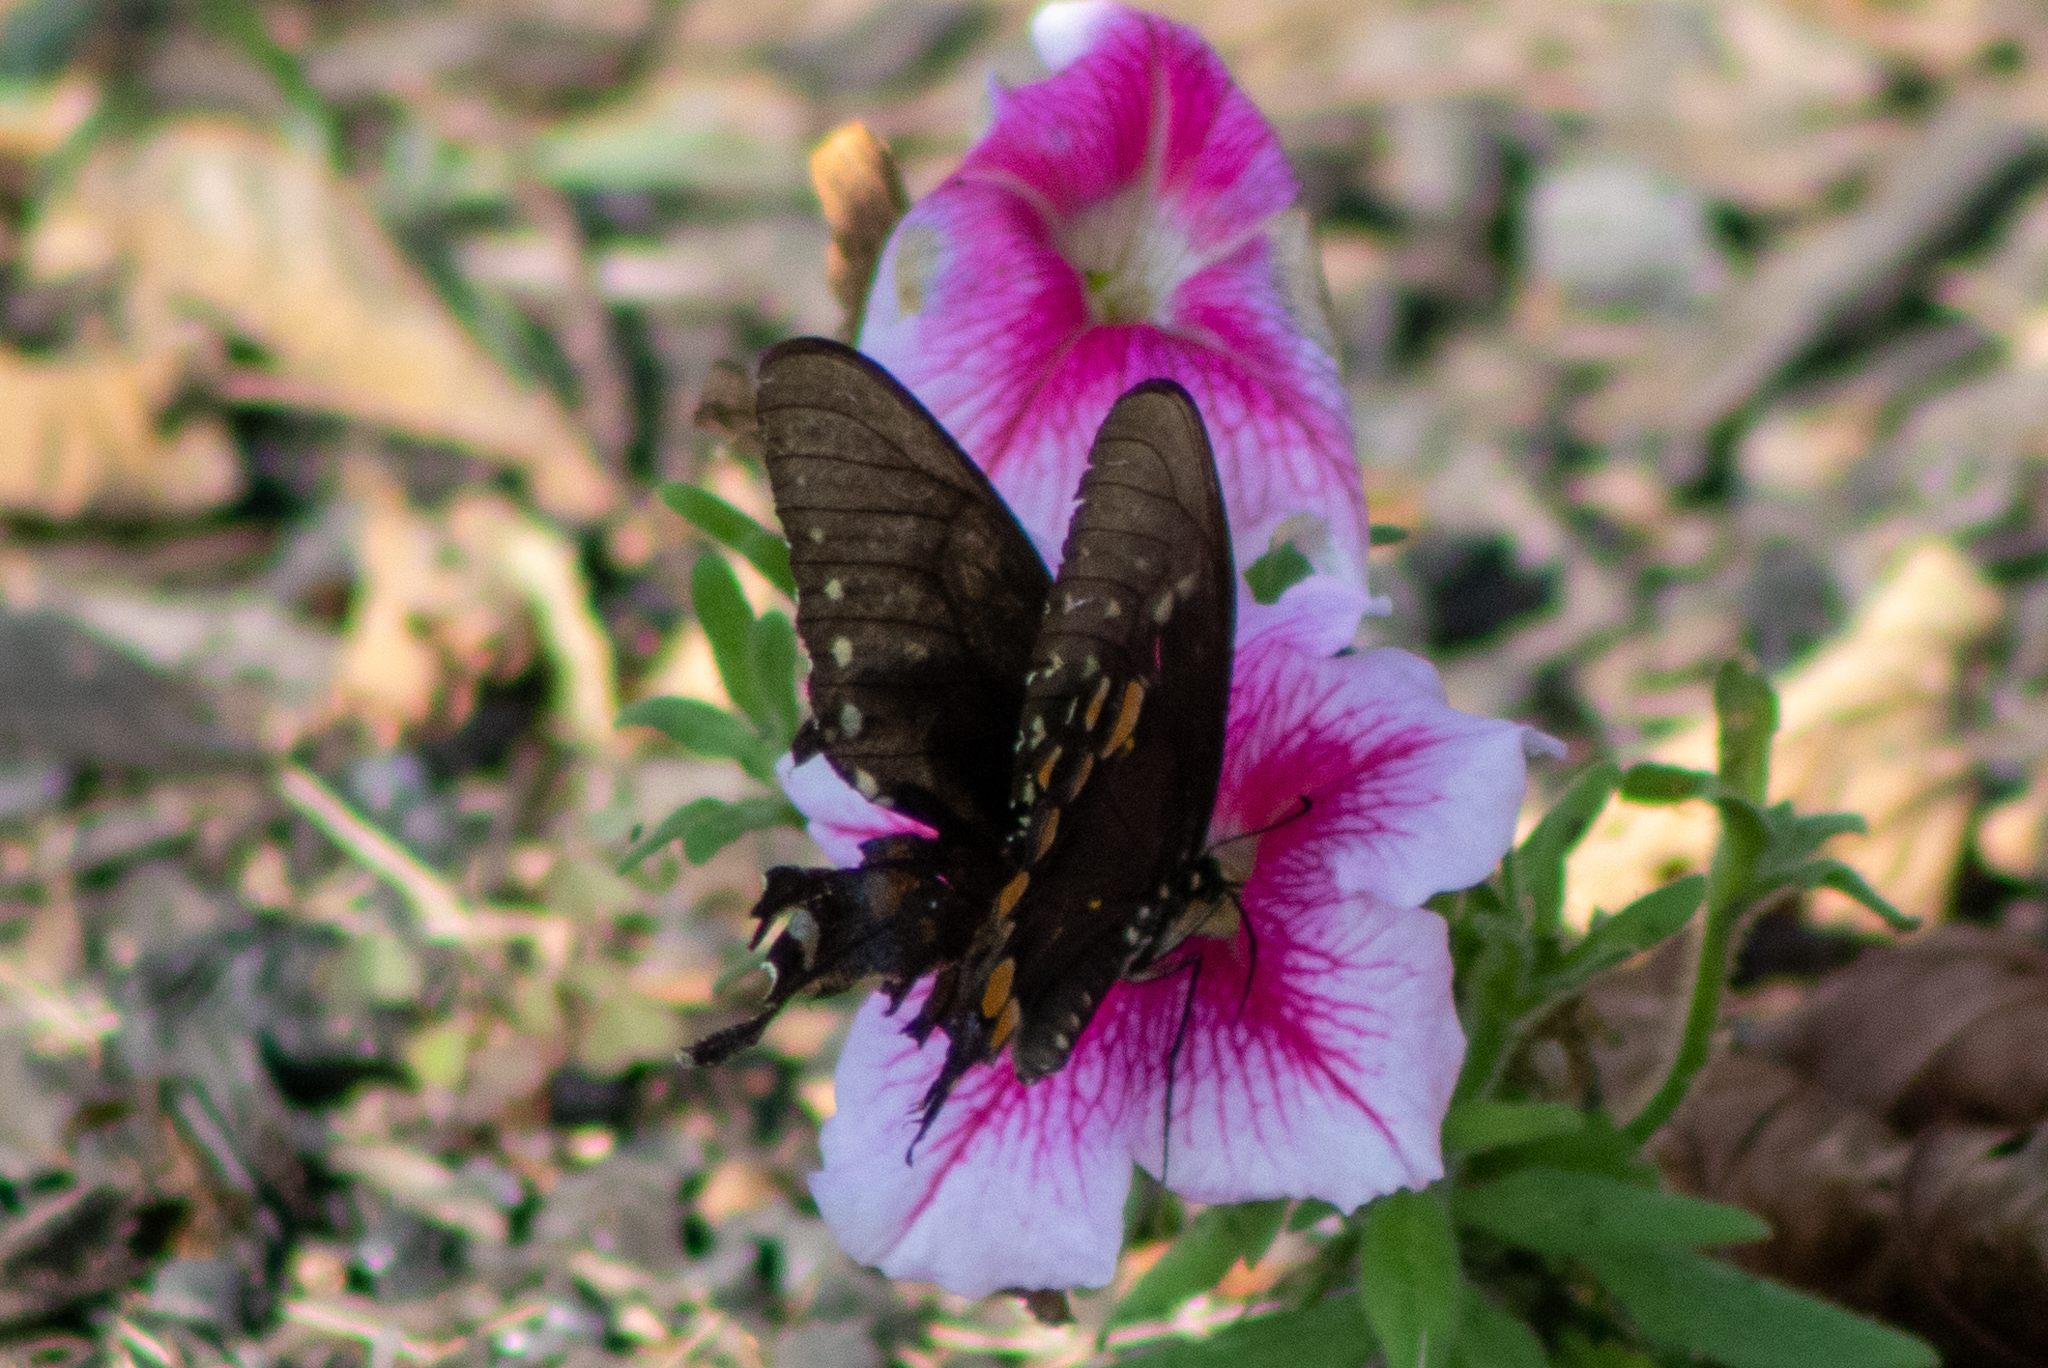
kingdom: Animalia
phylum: Arthropoda
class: Insecta
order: Lepidoptera
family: Papilionidae
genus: Papilio
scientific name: Papilio troilus
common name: Spicebush swallowtail
